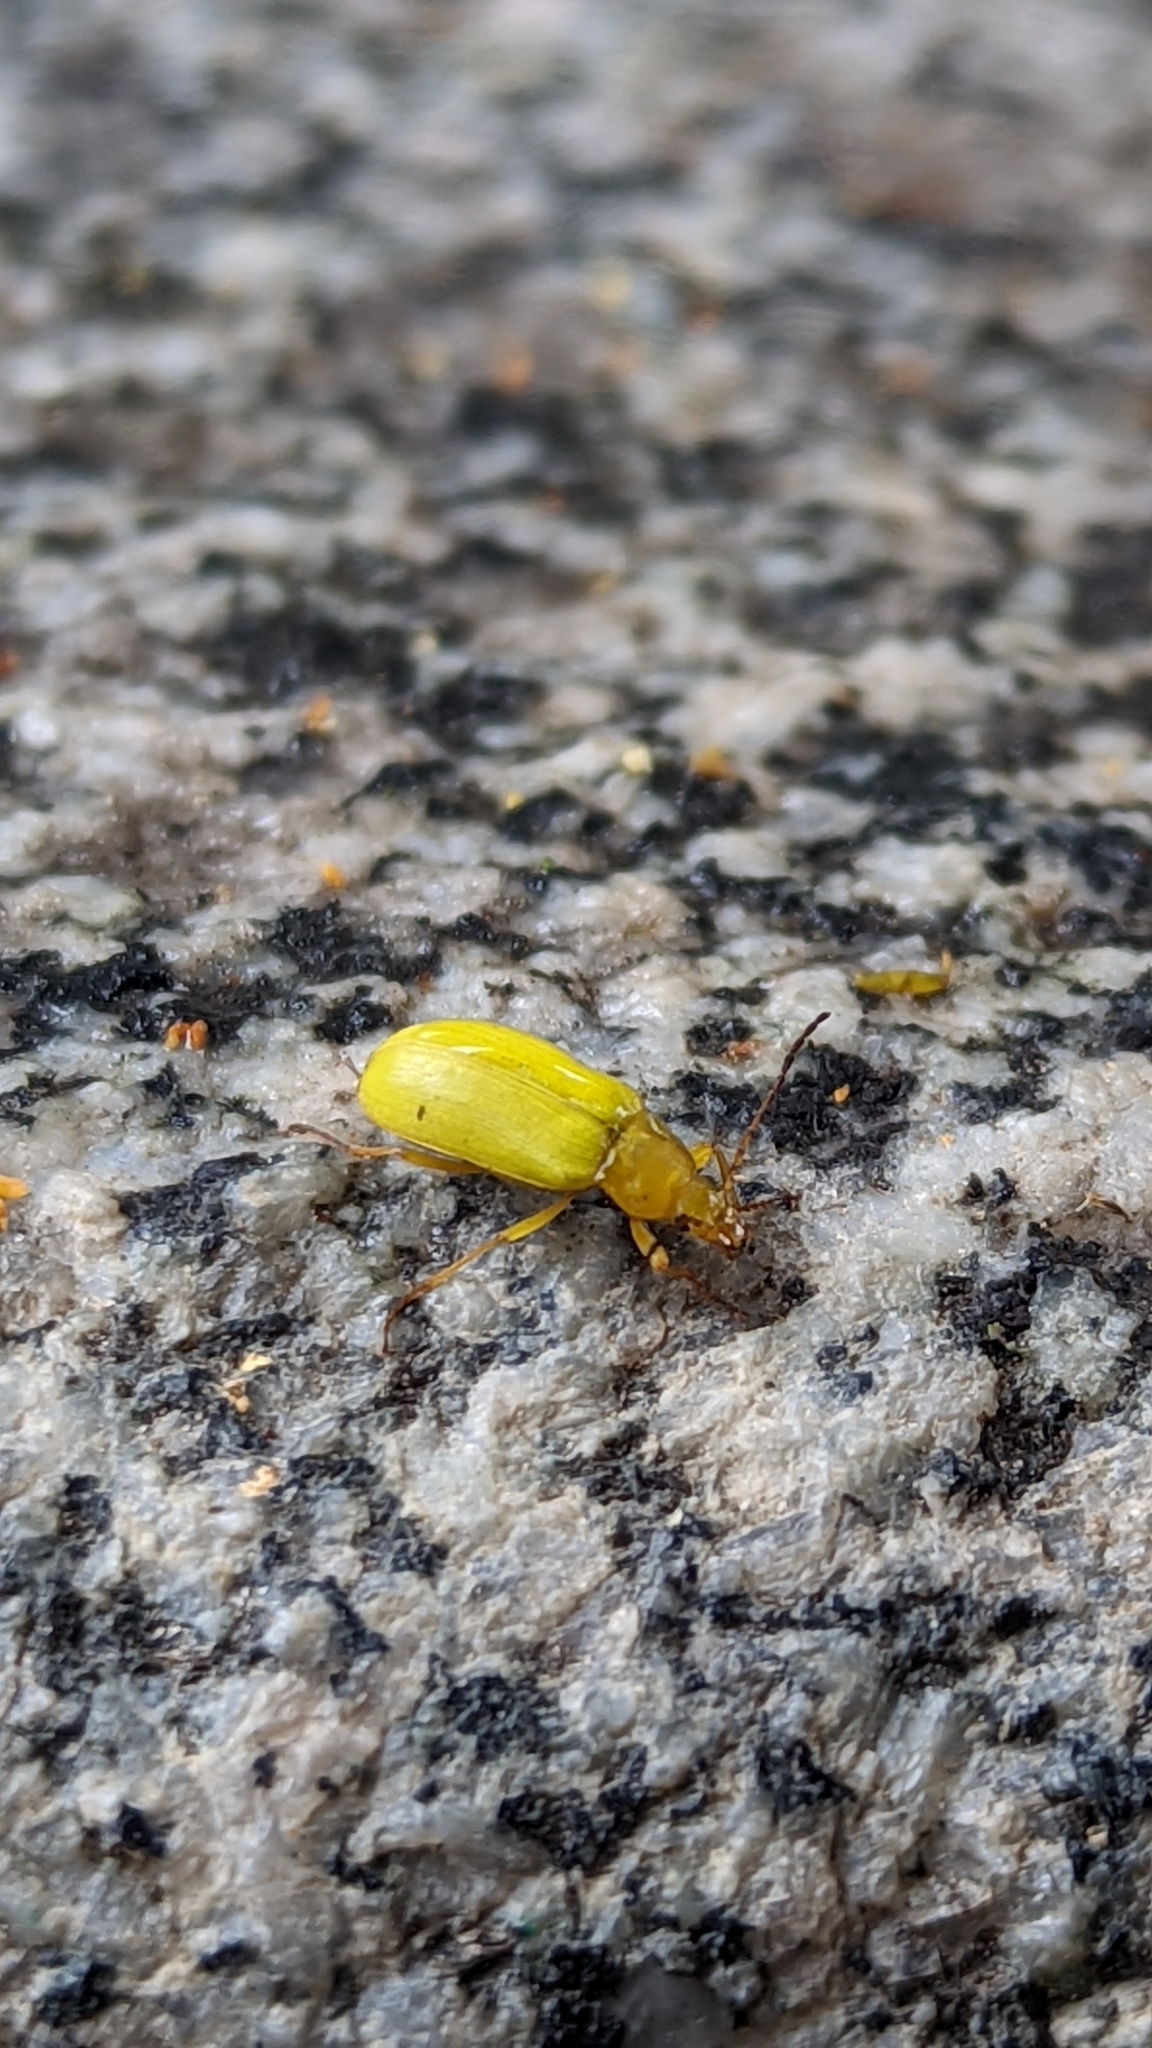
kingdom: Animalia
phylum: Arthropoda
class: Insecta
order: Coleoptera
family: Tenebrionidae
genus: Cteniopus
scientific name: Cteniopus sulphureus
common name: Sulphur beetle
